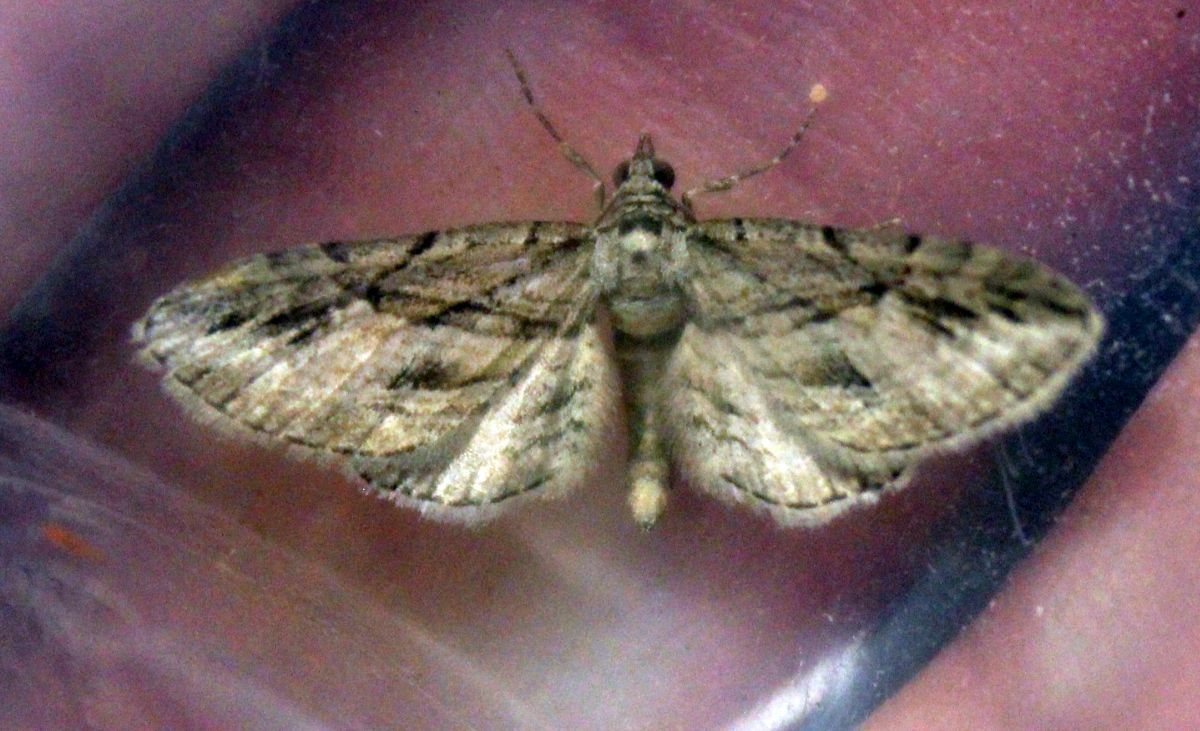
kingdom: Animalia
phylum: Arthropoda
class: Insecta
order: Lepidoptera
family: Geometridae
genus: Eupithecia
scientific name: Eupithecia phoeniceata
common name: Cypress pug
